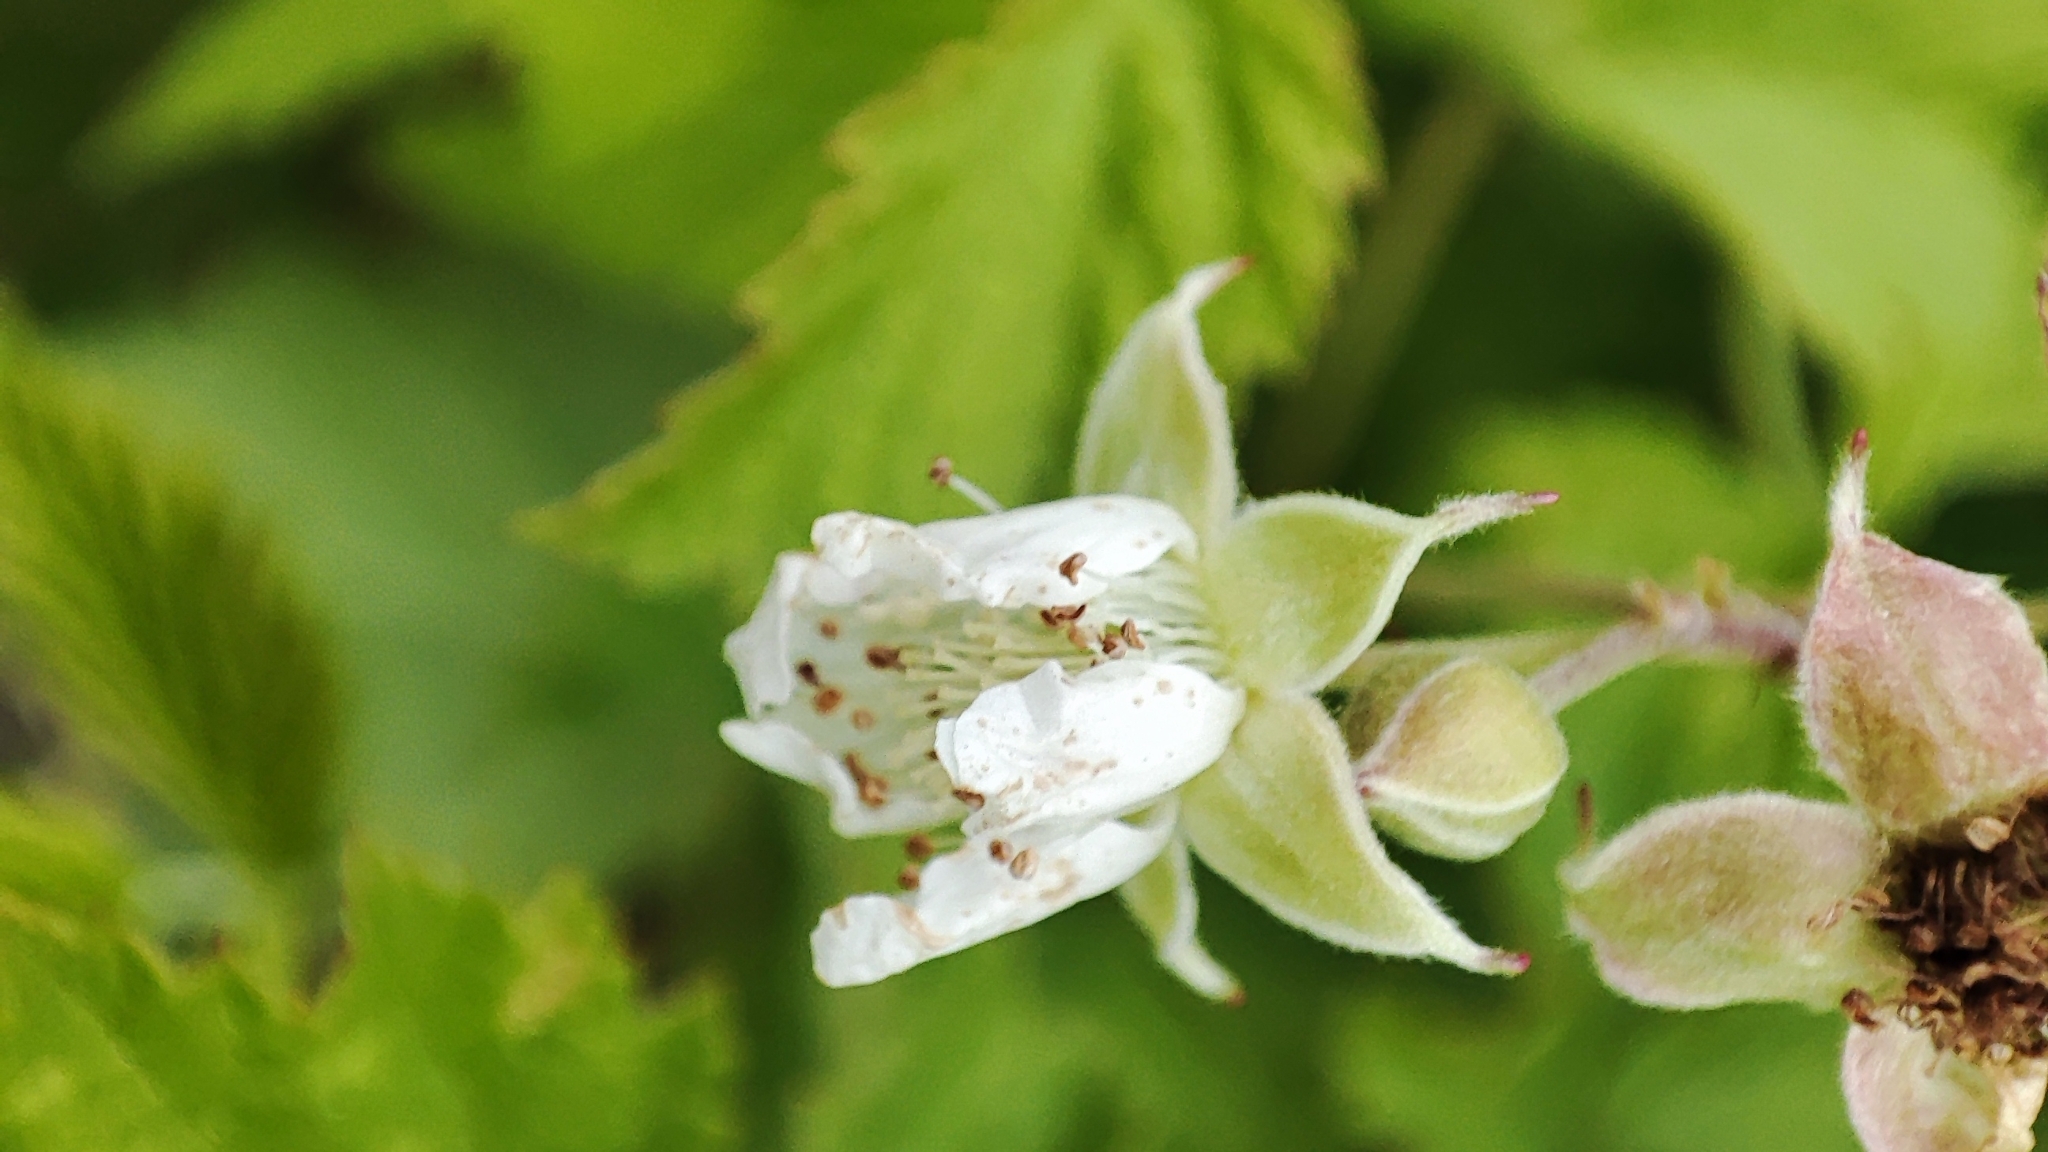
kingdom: Plantae
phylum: Tracheophyta
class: Magnoliopsida
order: Rosales
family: Rosaceae
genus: Rubus
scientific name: Rubus caesius
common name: Dewberry
